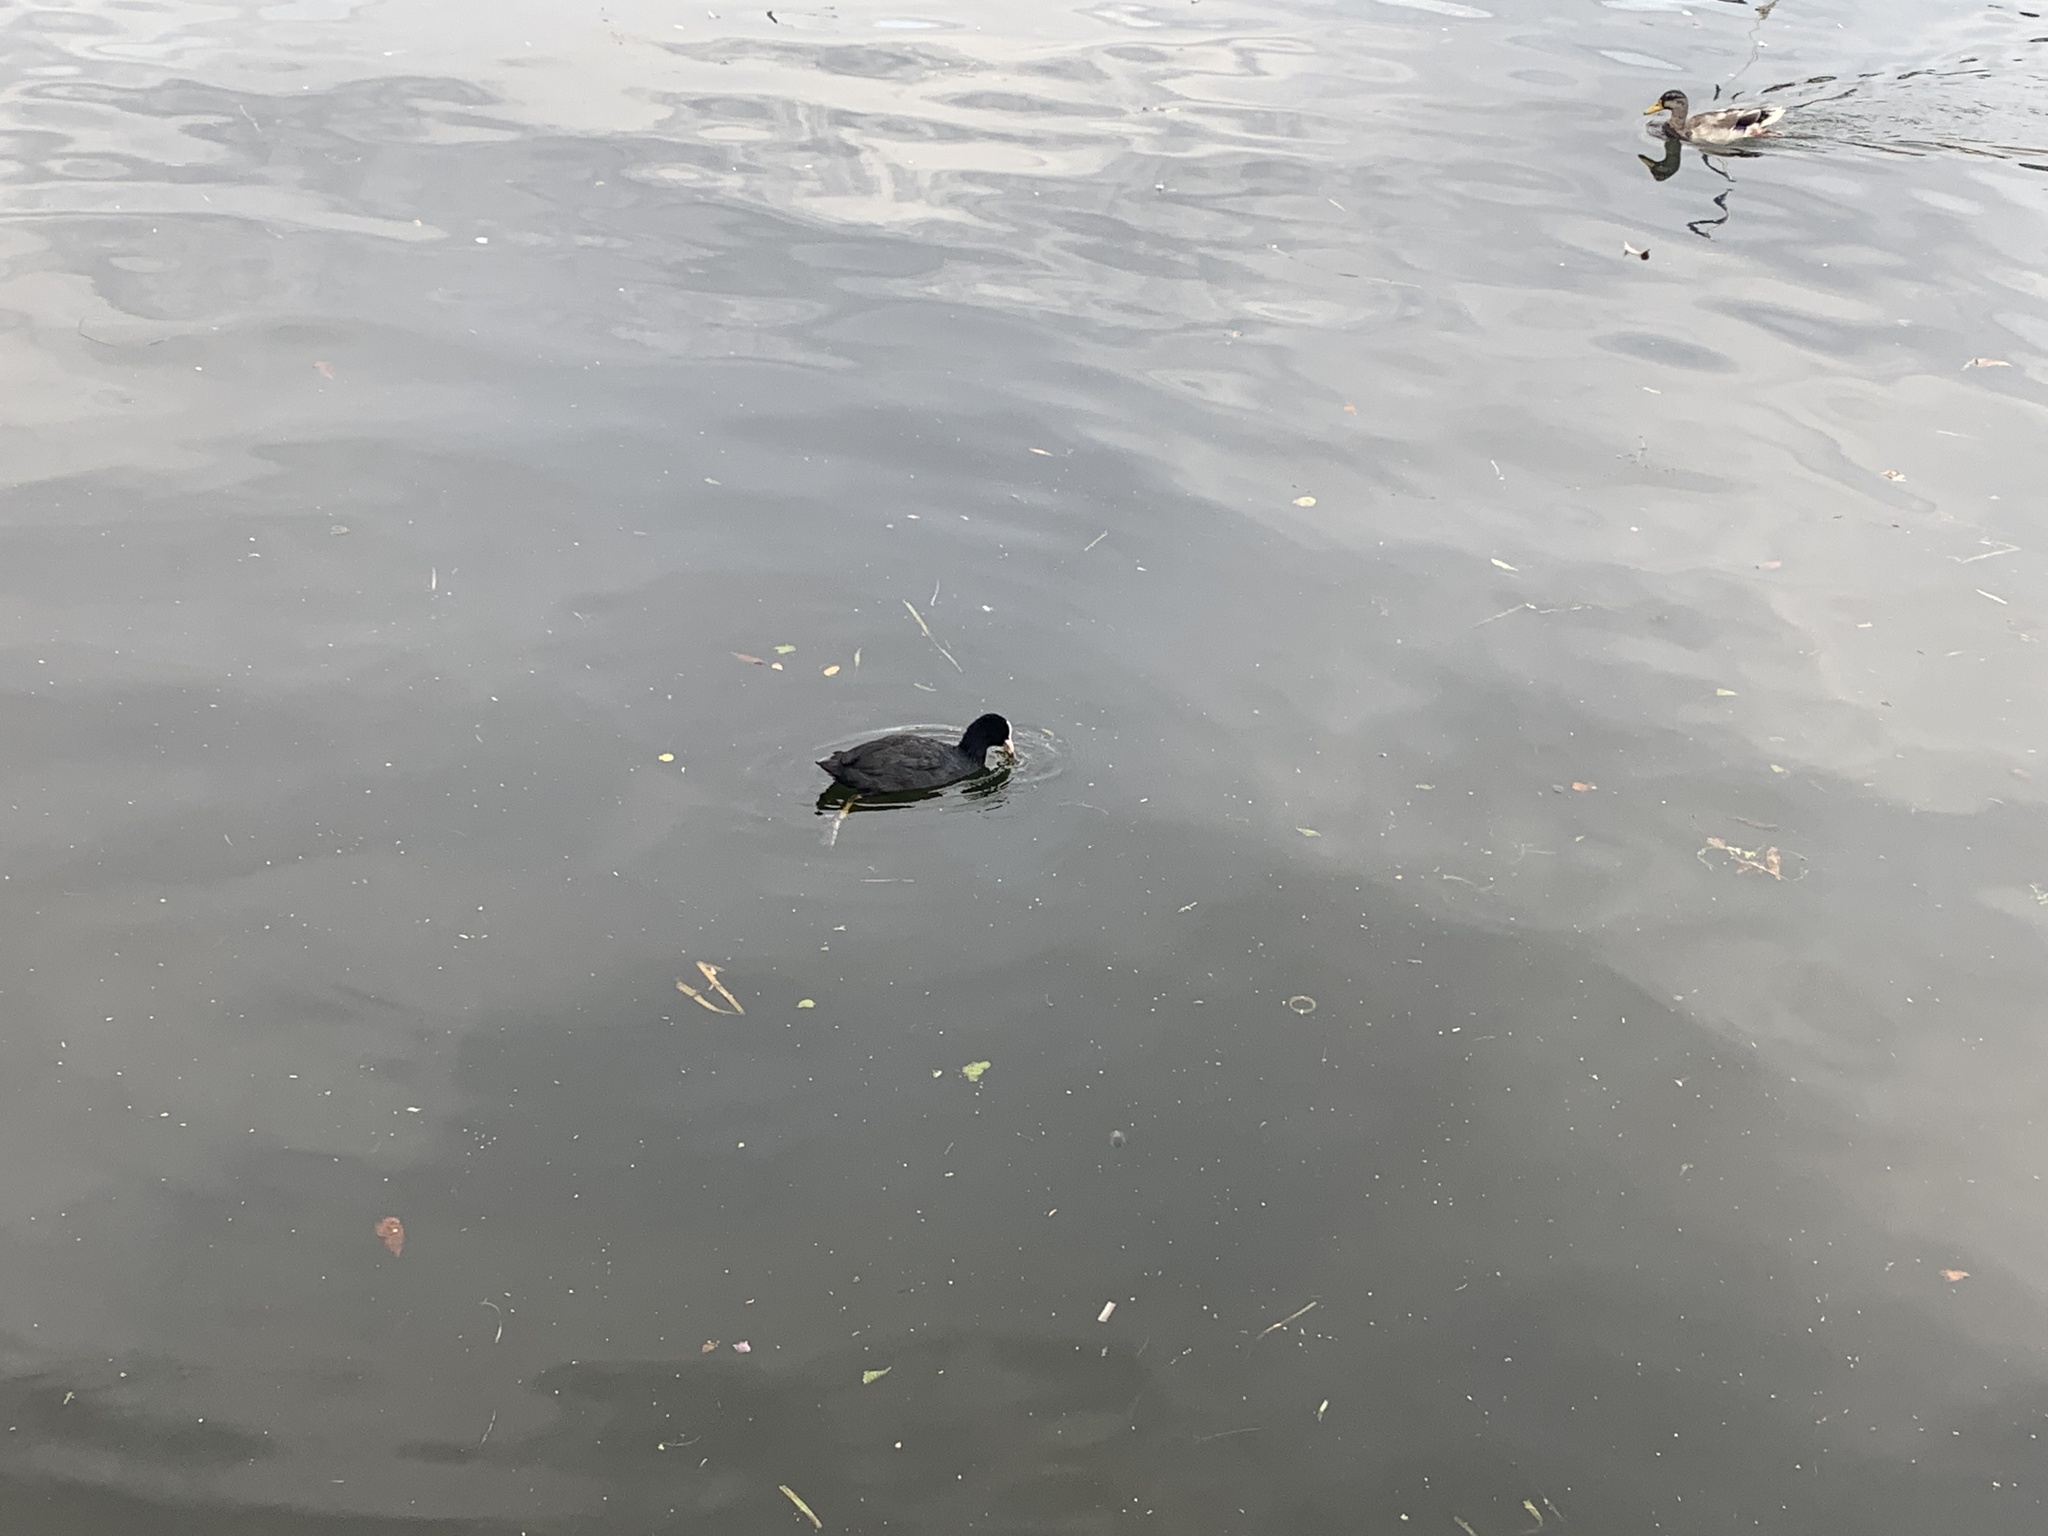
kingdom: Animalia
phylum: Chordata
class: Aves
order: Gruiformes
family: Rallidae
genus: Fulica
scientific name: Fulica atra
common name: Eurasian coot
